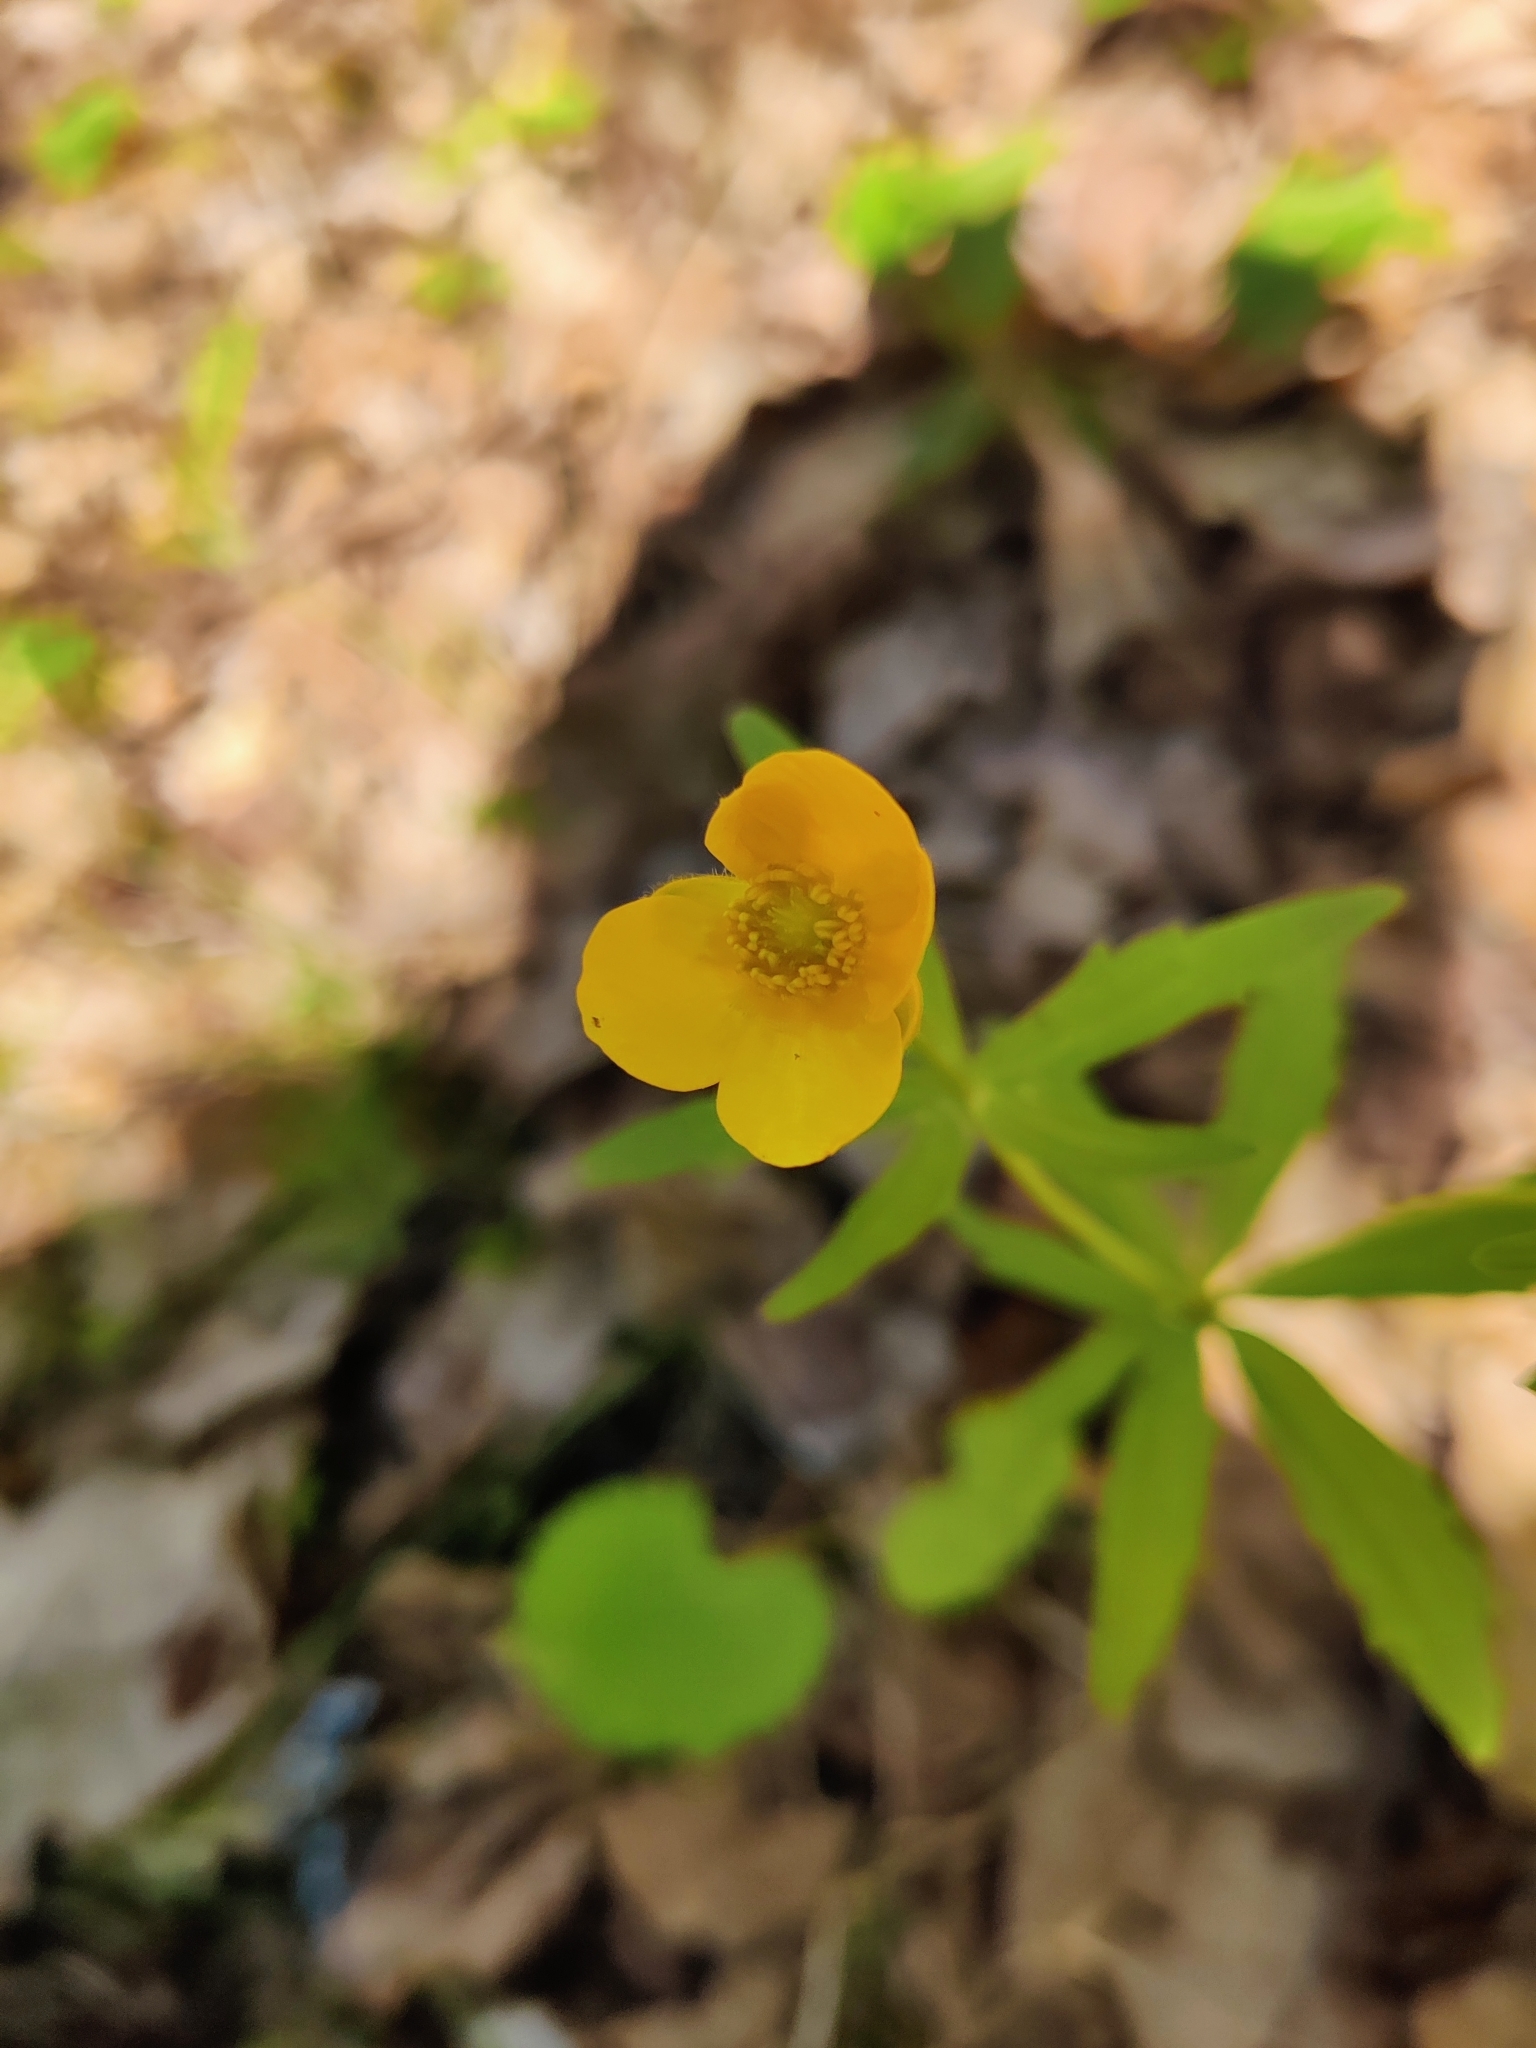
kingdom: Plantae
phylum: Tracheophyta
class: Magnoliopsida
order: Ranunculales
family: Ranunculaceae
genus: Ranunculus
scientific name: Ranunculus cassubicus
